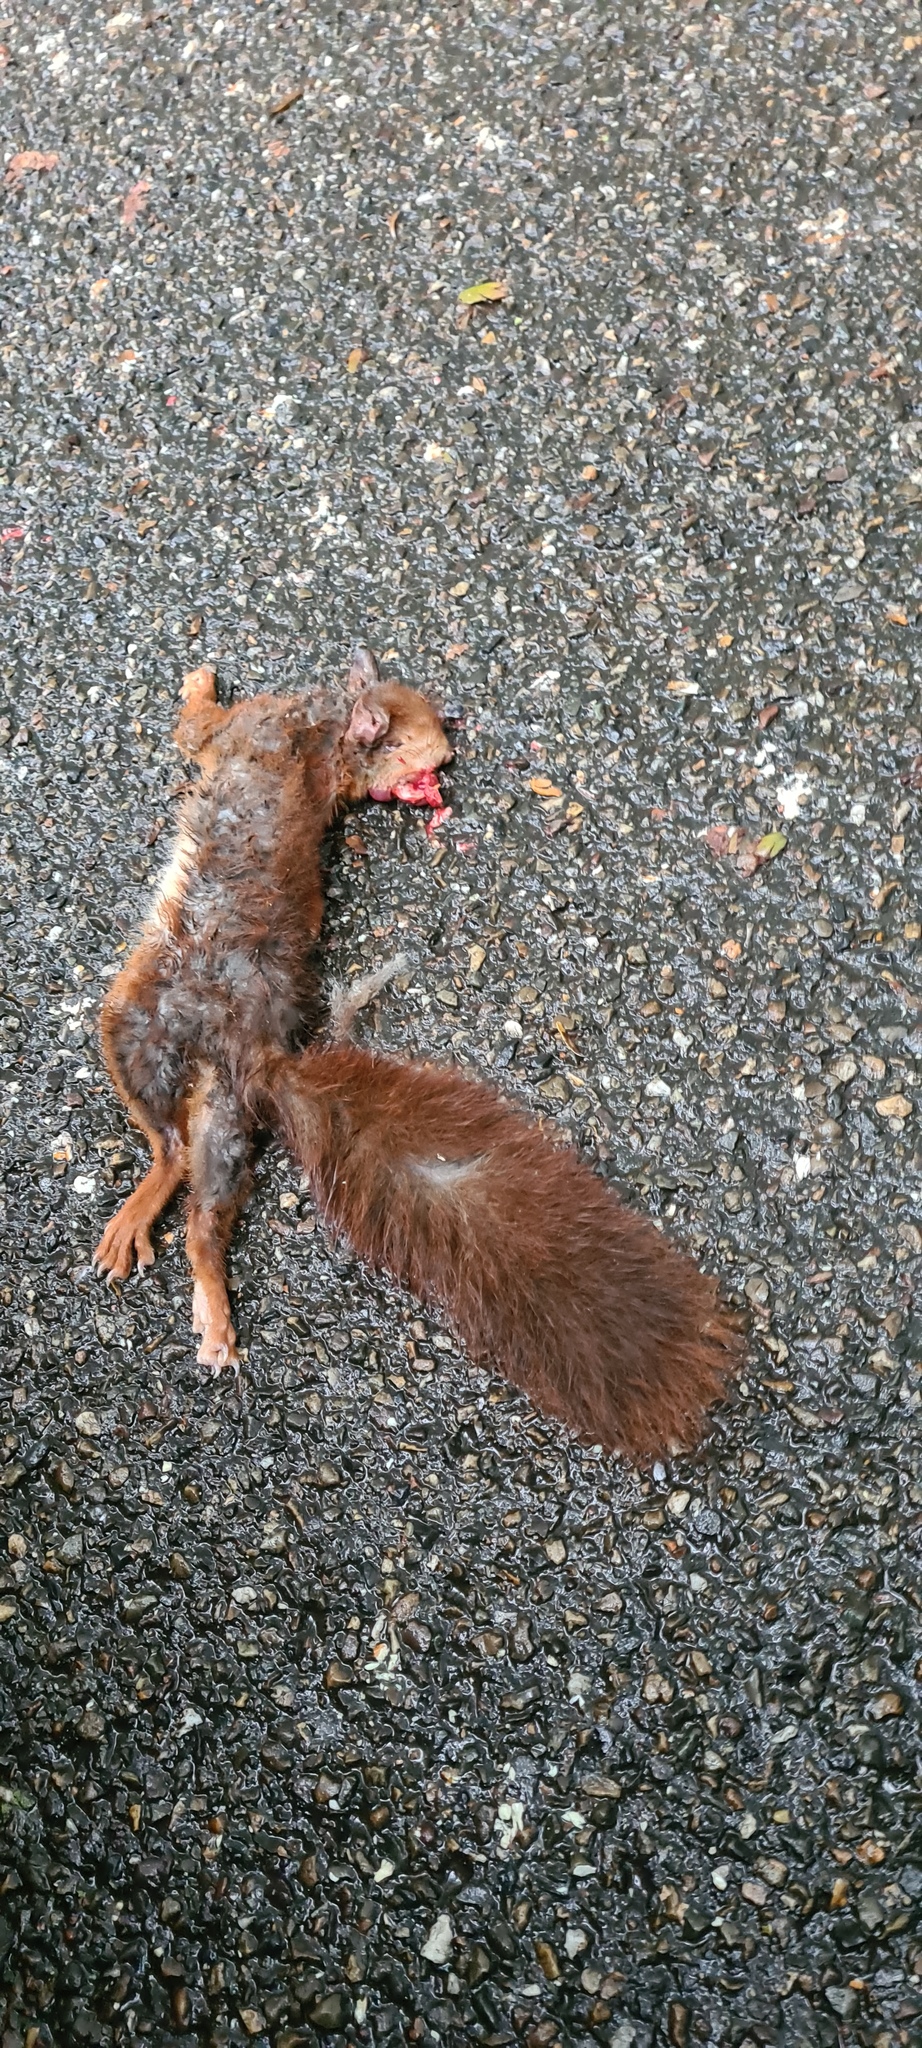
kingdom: Animalia
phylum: Chordata
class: Mammalia
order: Rodentia
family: Sciuridae
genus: Sciurus
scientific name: Sciurus vulgaris
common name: Eurasian red squirrel
